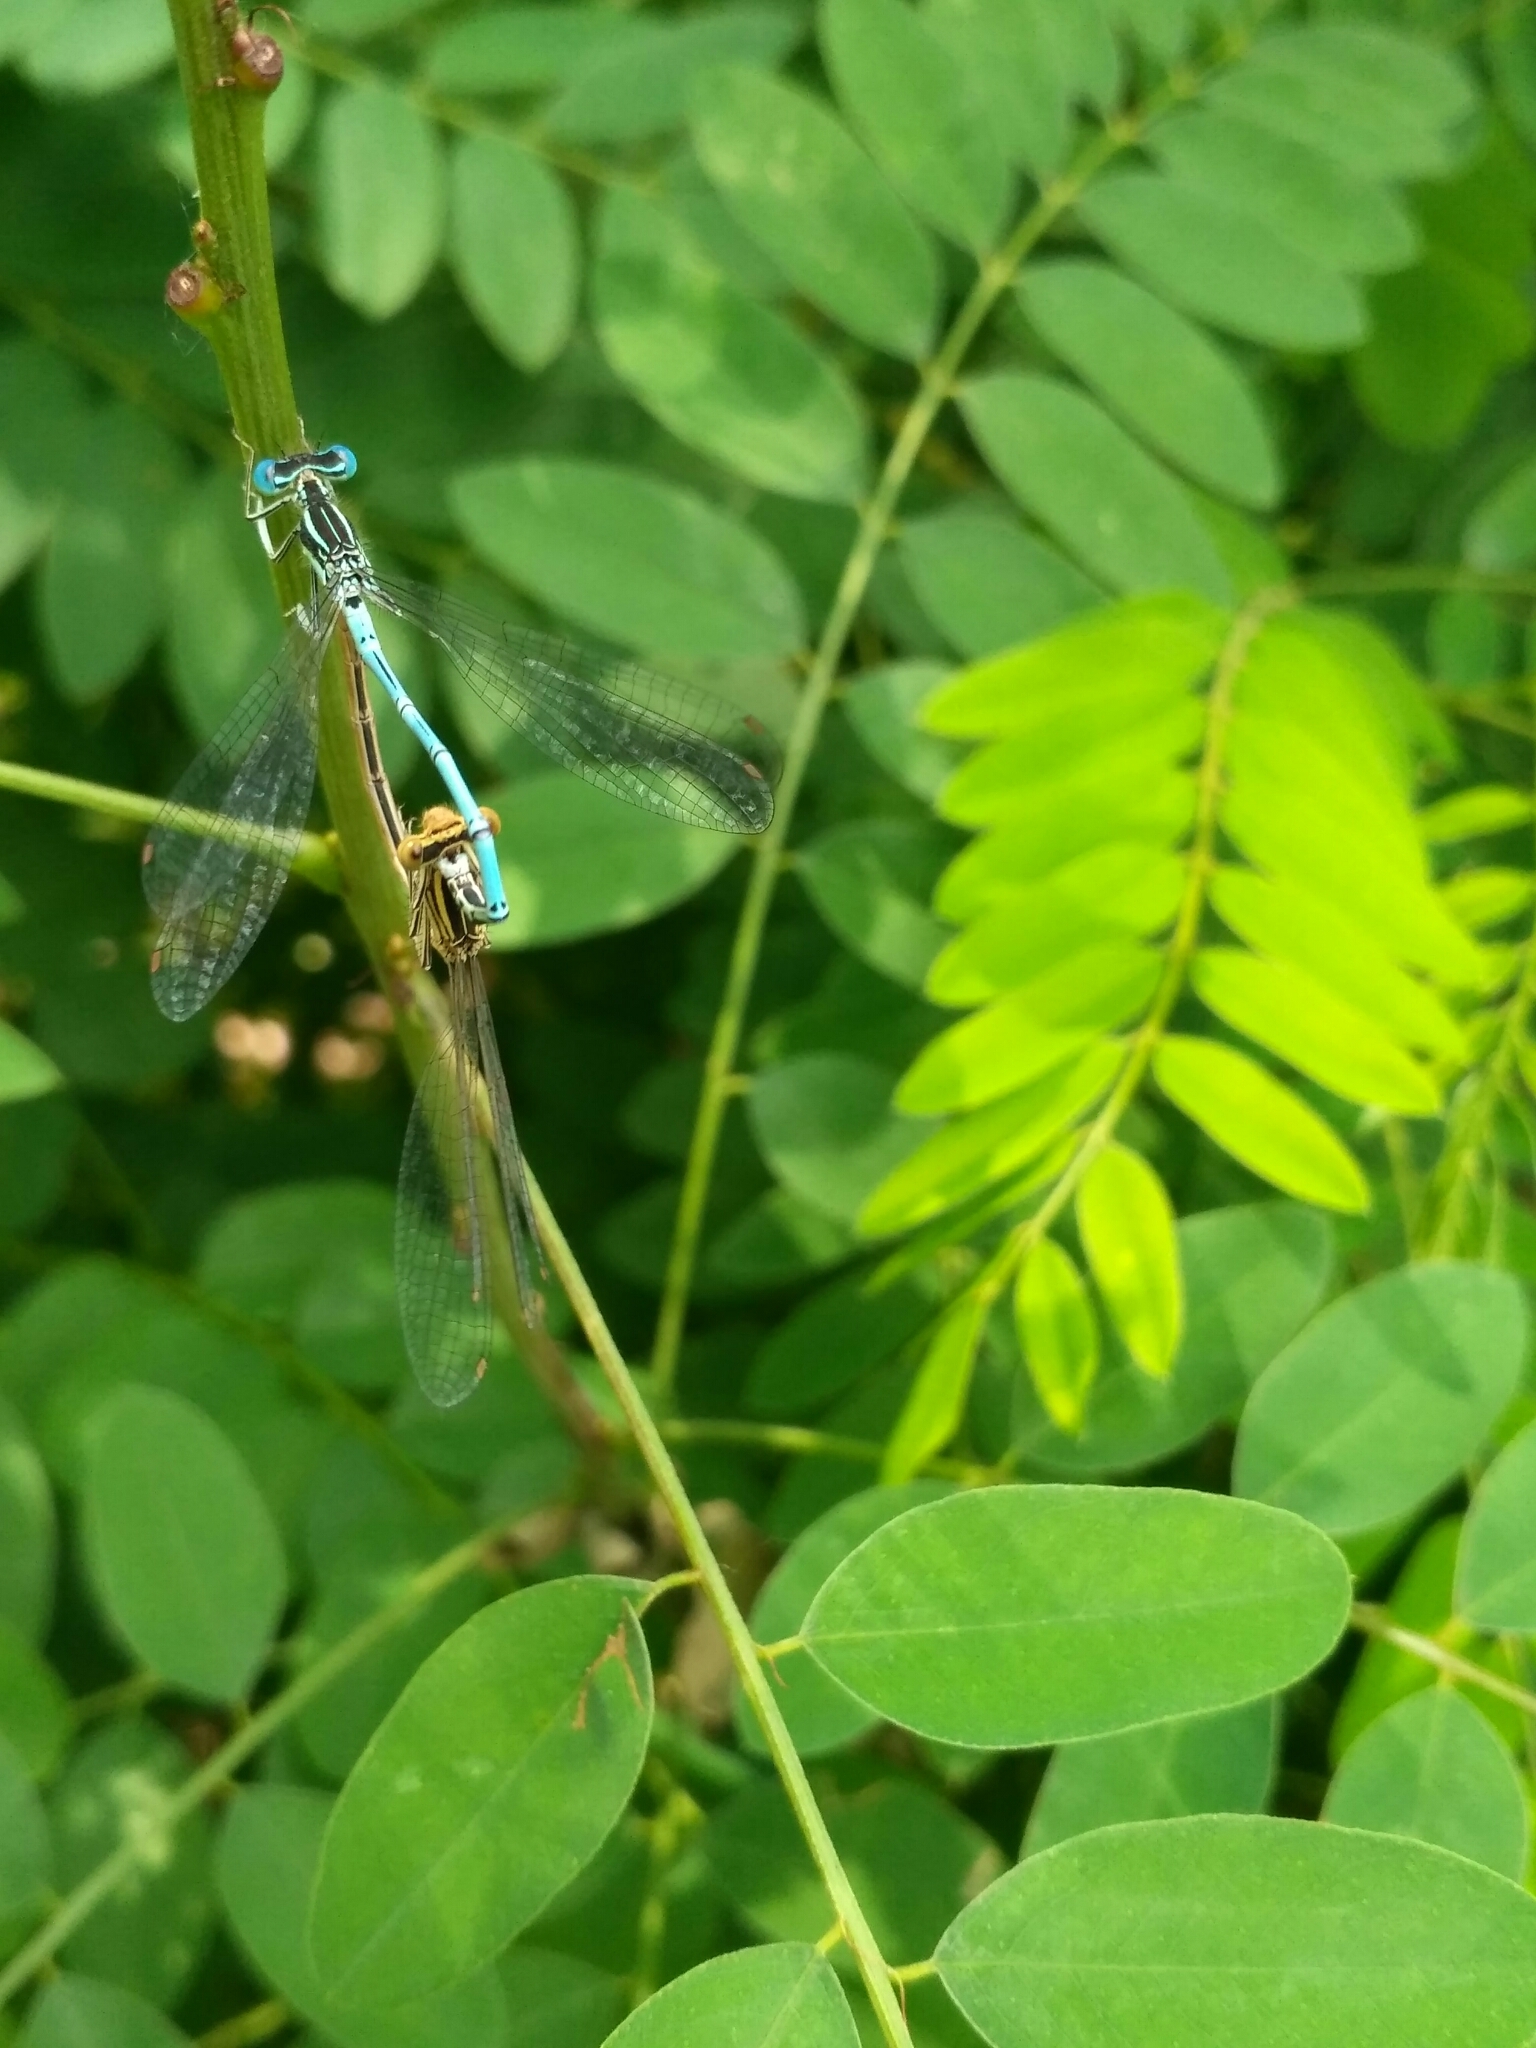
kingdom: Animalia
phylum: Arthropoda
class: Insecta
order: Odonata
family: Platycnemididae
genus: Platycnemis
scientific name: Platycnemis pennipes
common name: White-legged damselfly
